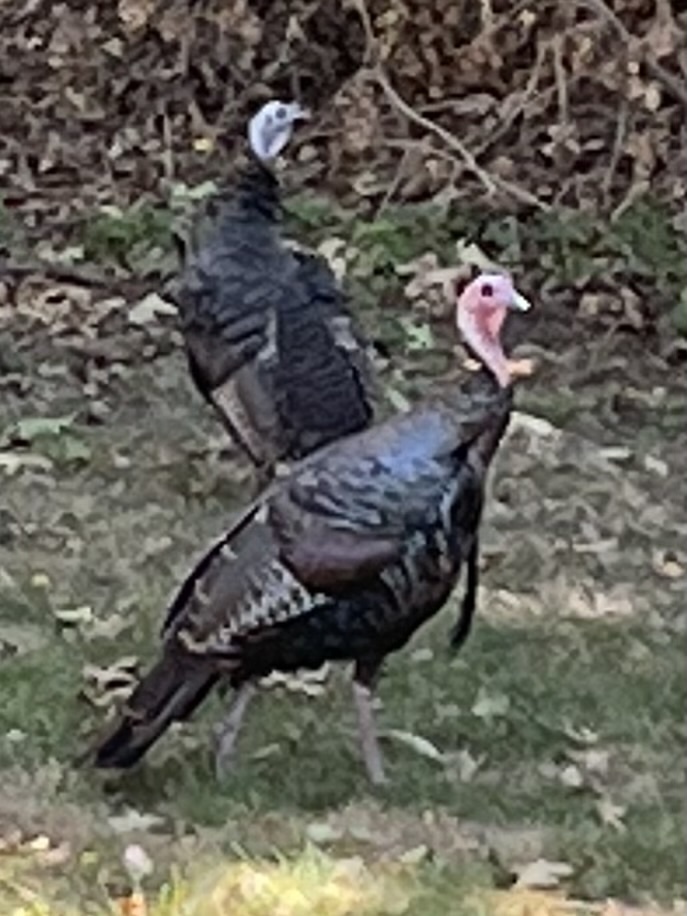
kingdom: Animalia
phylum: Chordata
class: Aves
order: Galliformes
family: Phasianidae
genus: Meleagris
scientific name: Meleagris gallopavo
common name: Wild turkey
